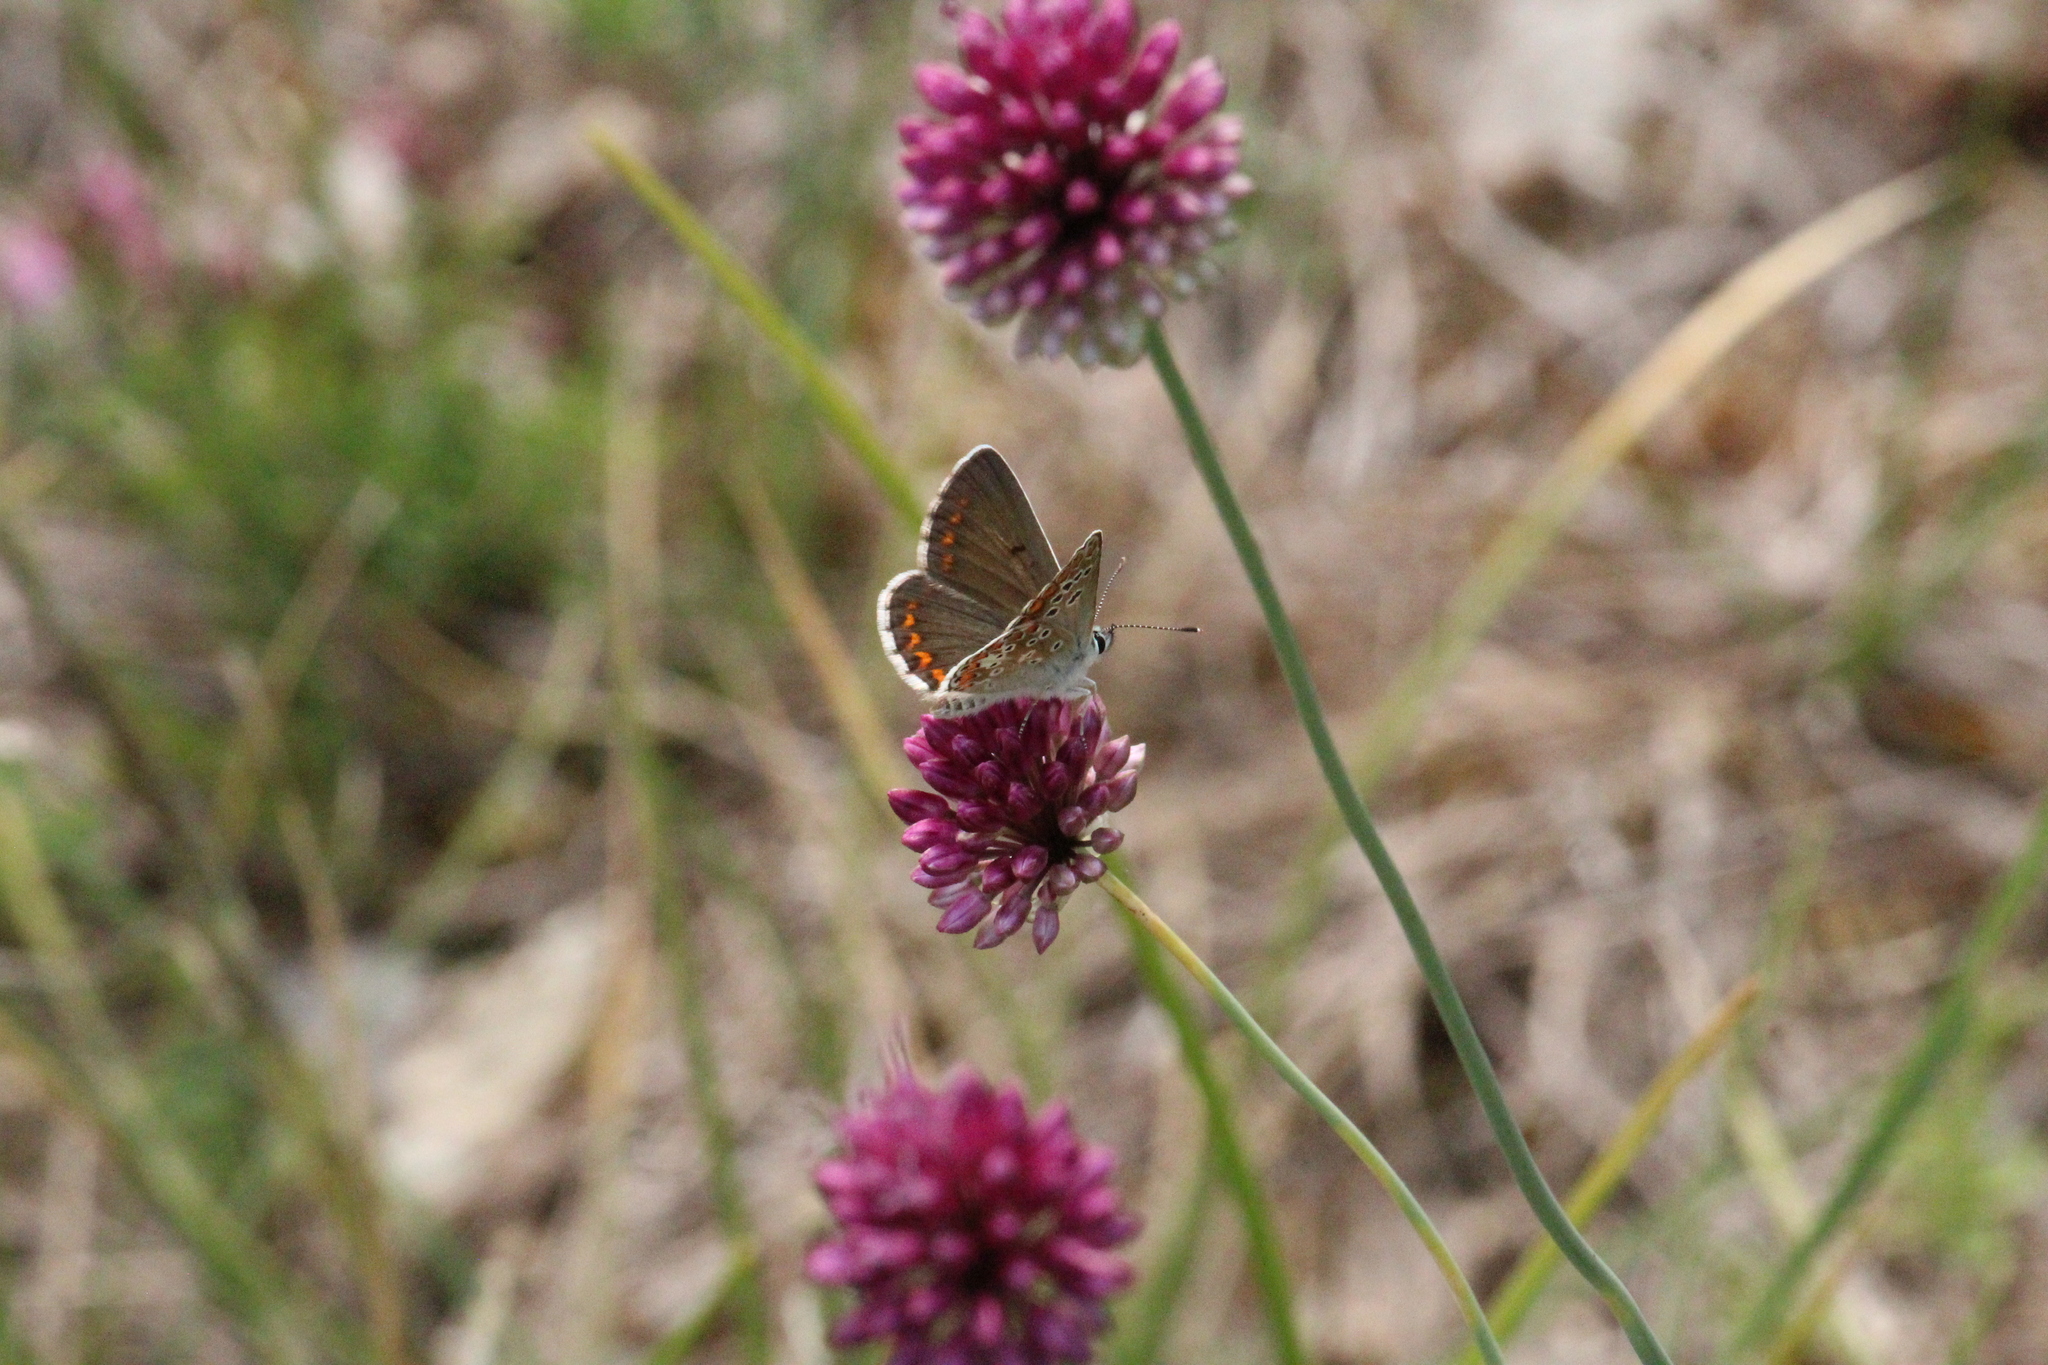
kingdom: Plantae
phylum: Tracheophyta
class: Liliopsida
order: Asparagales
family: Amaryllidaceae
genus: Allium
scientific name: Allium sphaerocephalon
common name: Round-headed leek
